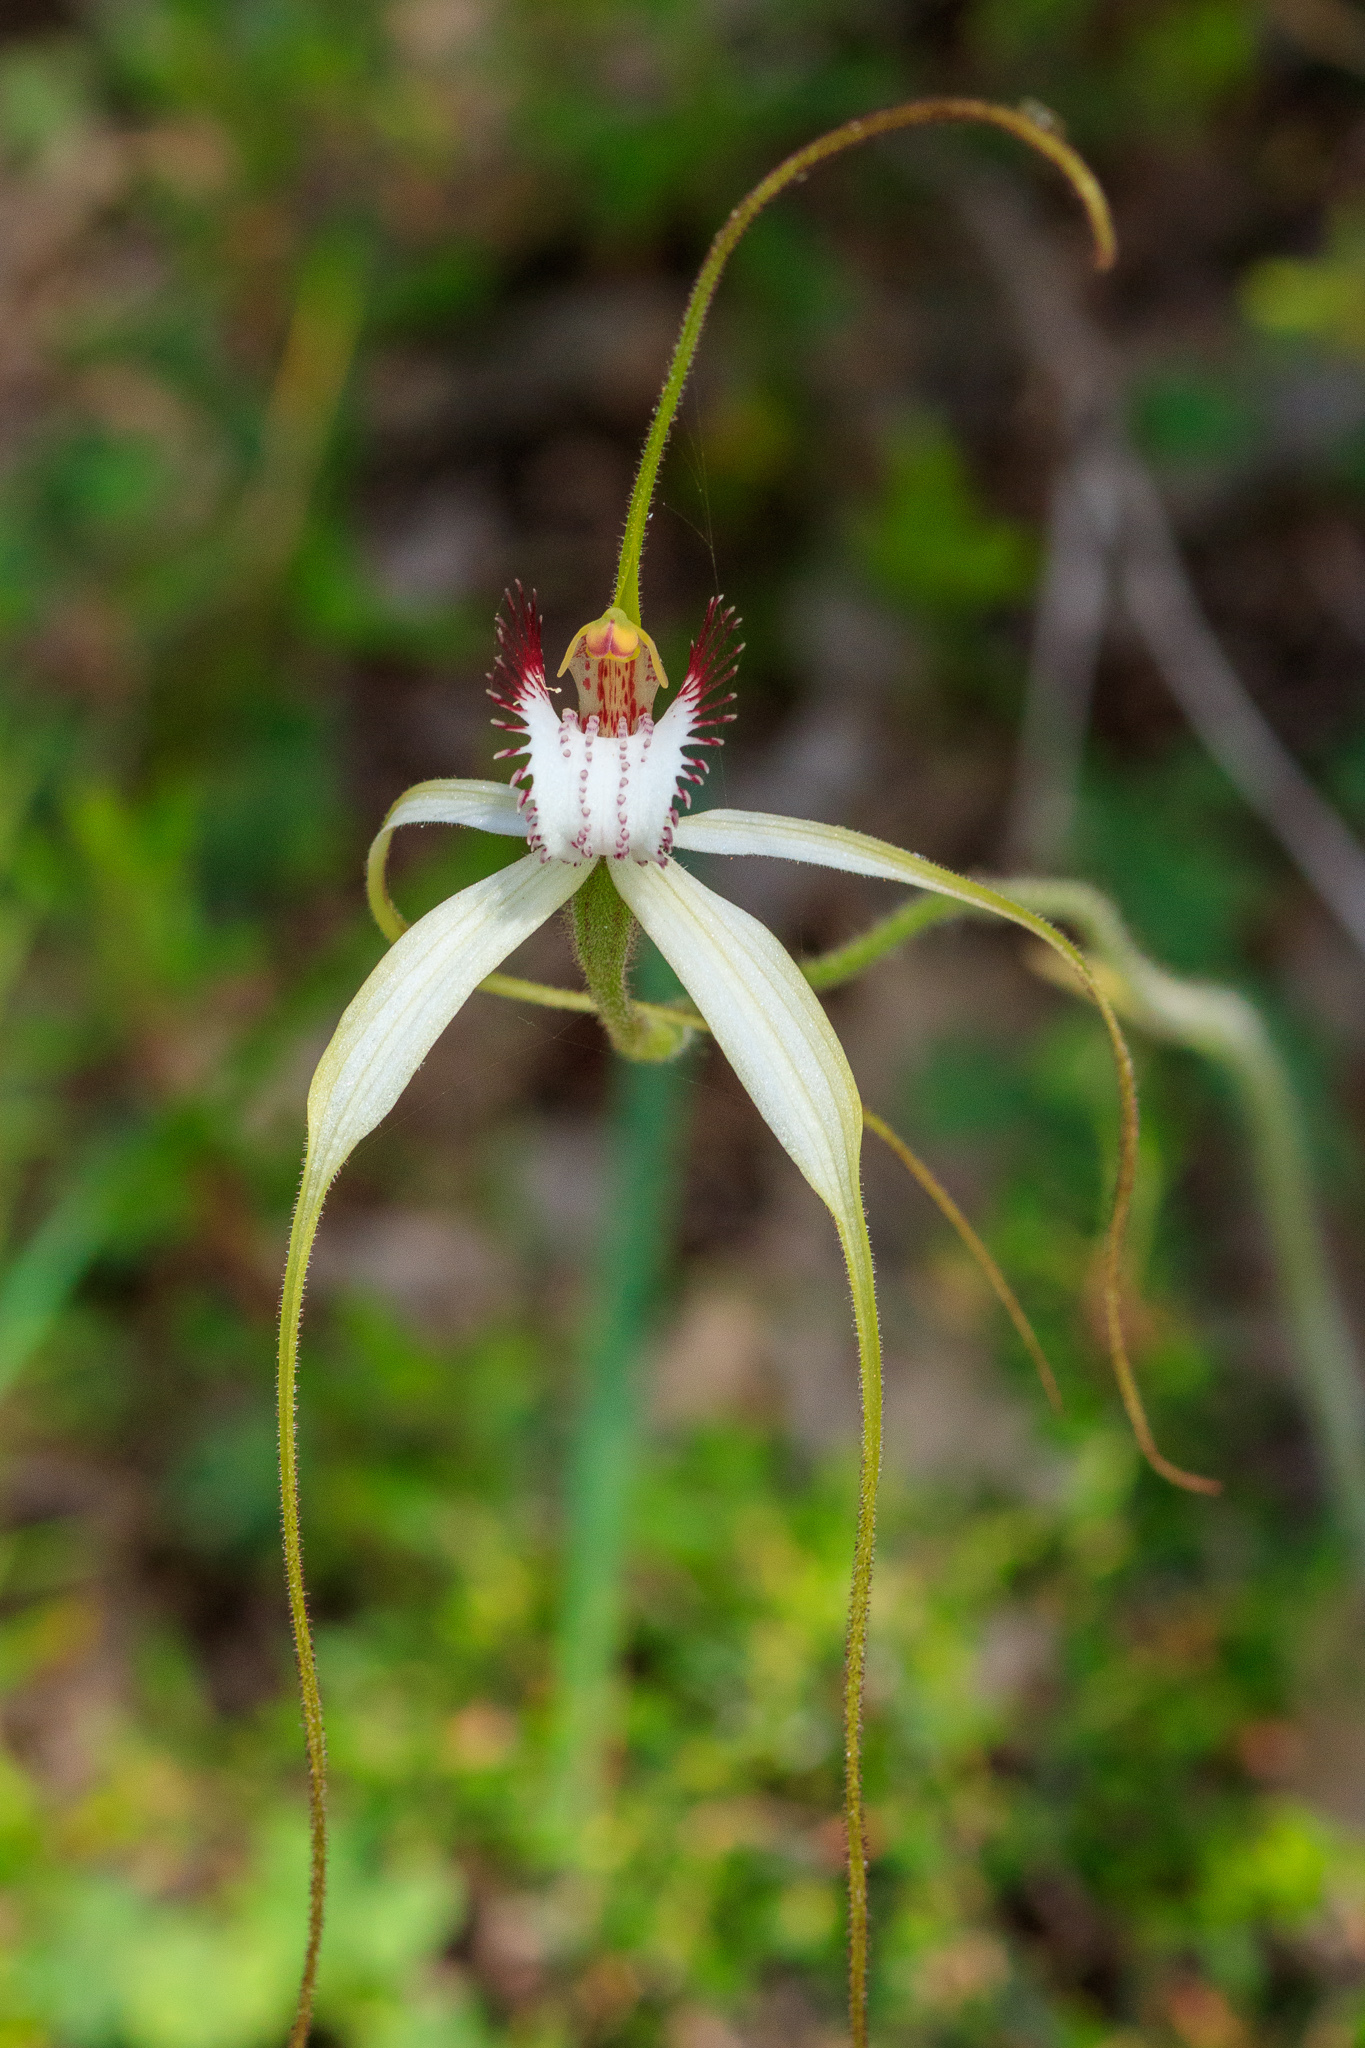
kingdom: Plantae
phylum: Tracheophyta
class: Liliopsida
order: Asparagales
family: Orchidaceae
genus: Caladenia
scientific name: Caladenia longicauda
